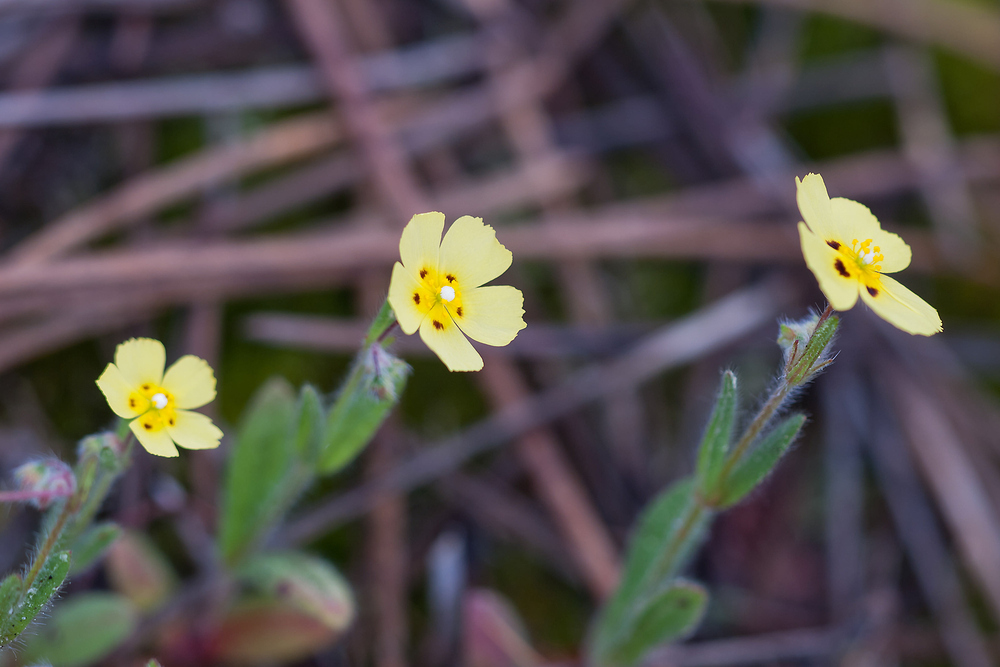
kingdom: Plantae
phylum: Tracheophyta
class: Magnoliopsida
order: Malvales
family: Cistaceae
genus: Tuberaria
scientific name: Tuberaria guttata
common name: Spotted rock-rose
